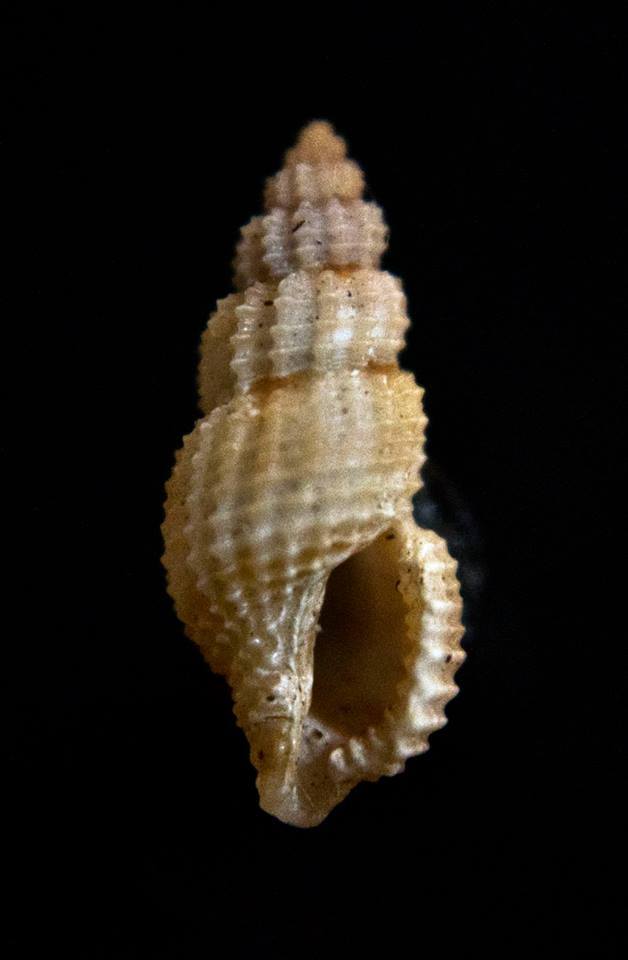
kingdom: Animalia
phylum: Mollusca
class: Gastropoda
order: Neogastropoda
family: Raphitomidae
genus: Raphitoma
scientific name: Raphitoma echinata
